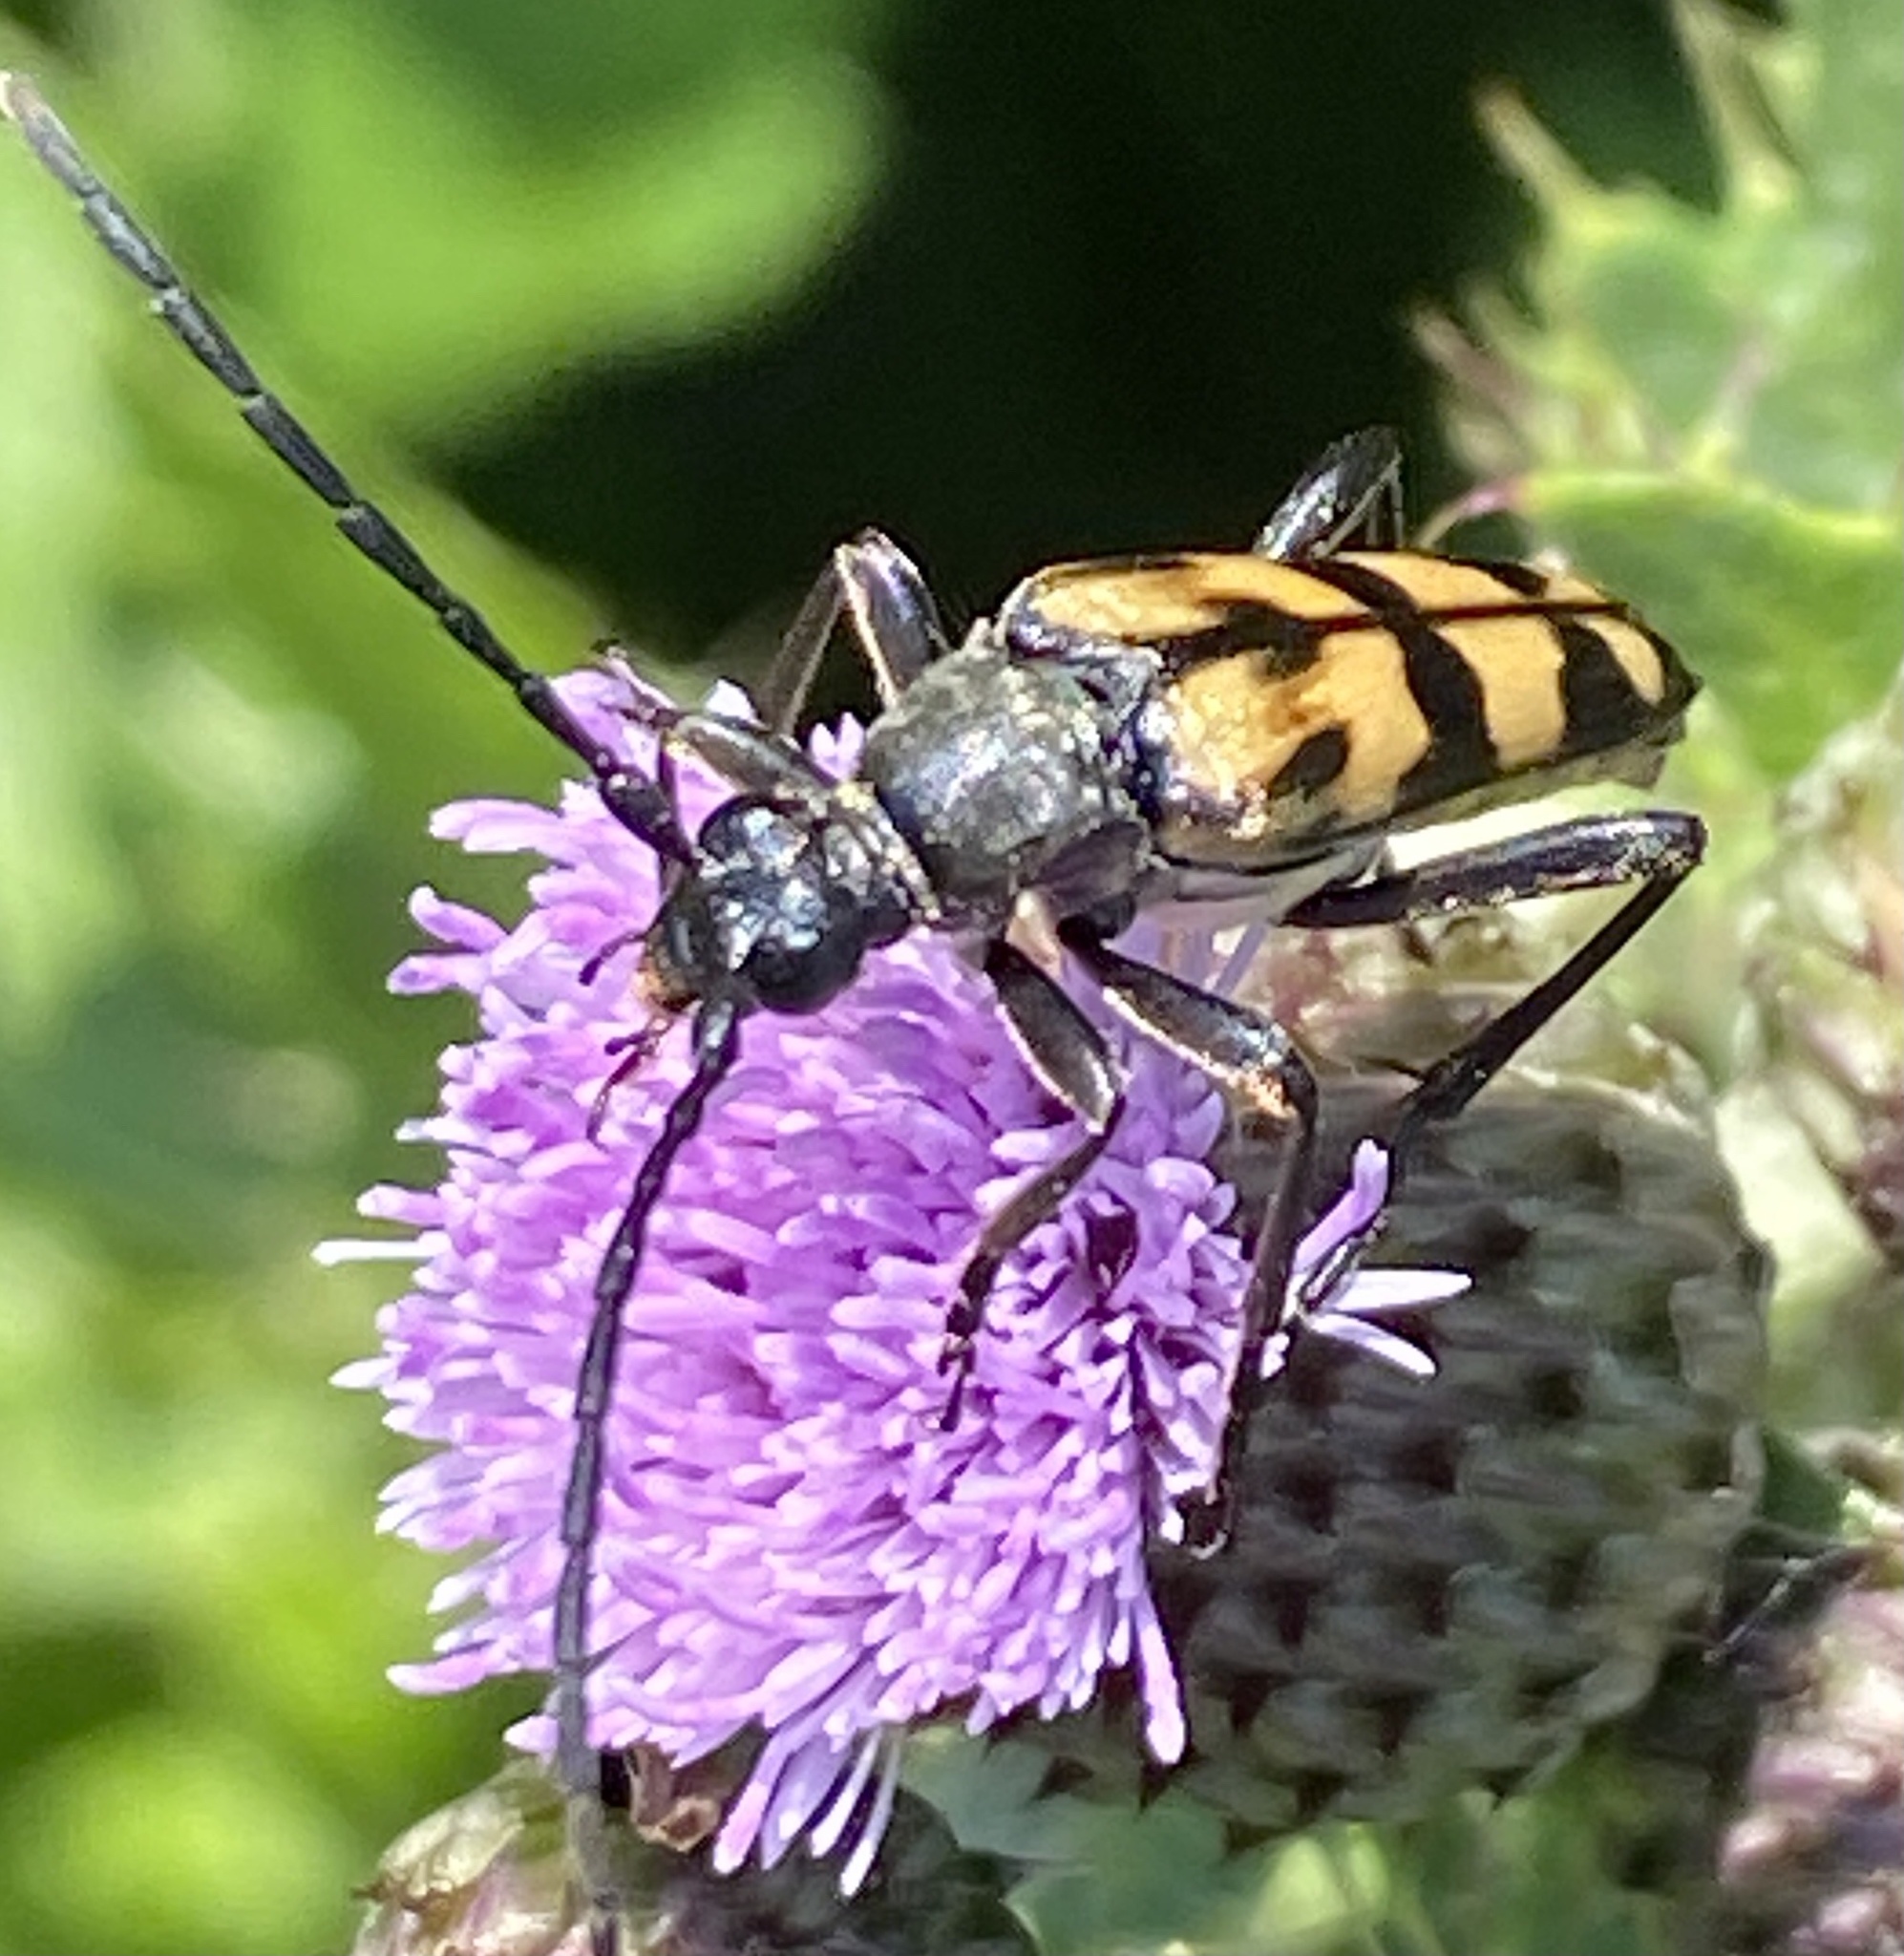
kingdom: Animalia
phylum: Arthropoda
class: Insecta
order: Coleoptera
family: Cerambycidae
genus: Leptura
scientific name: Leptura quadrifasciata
